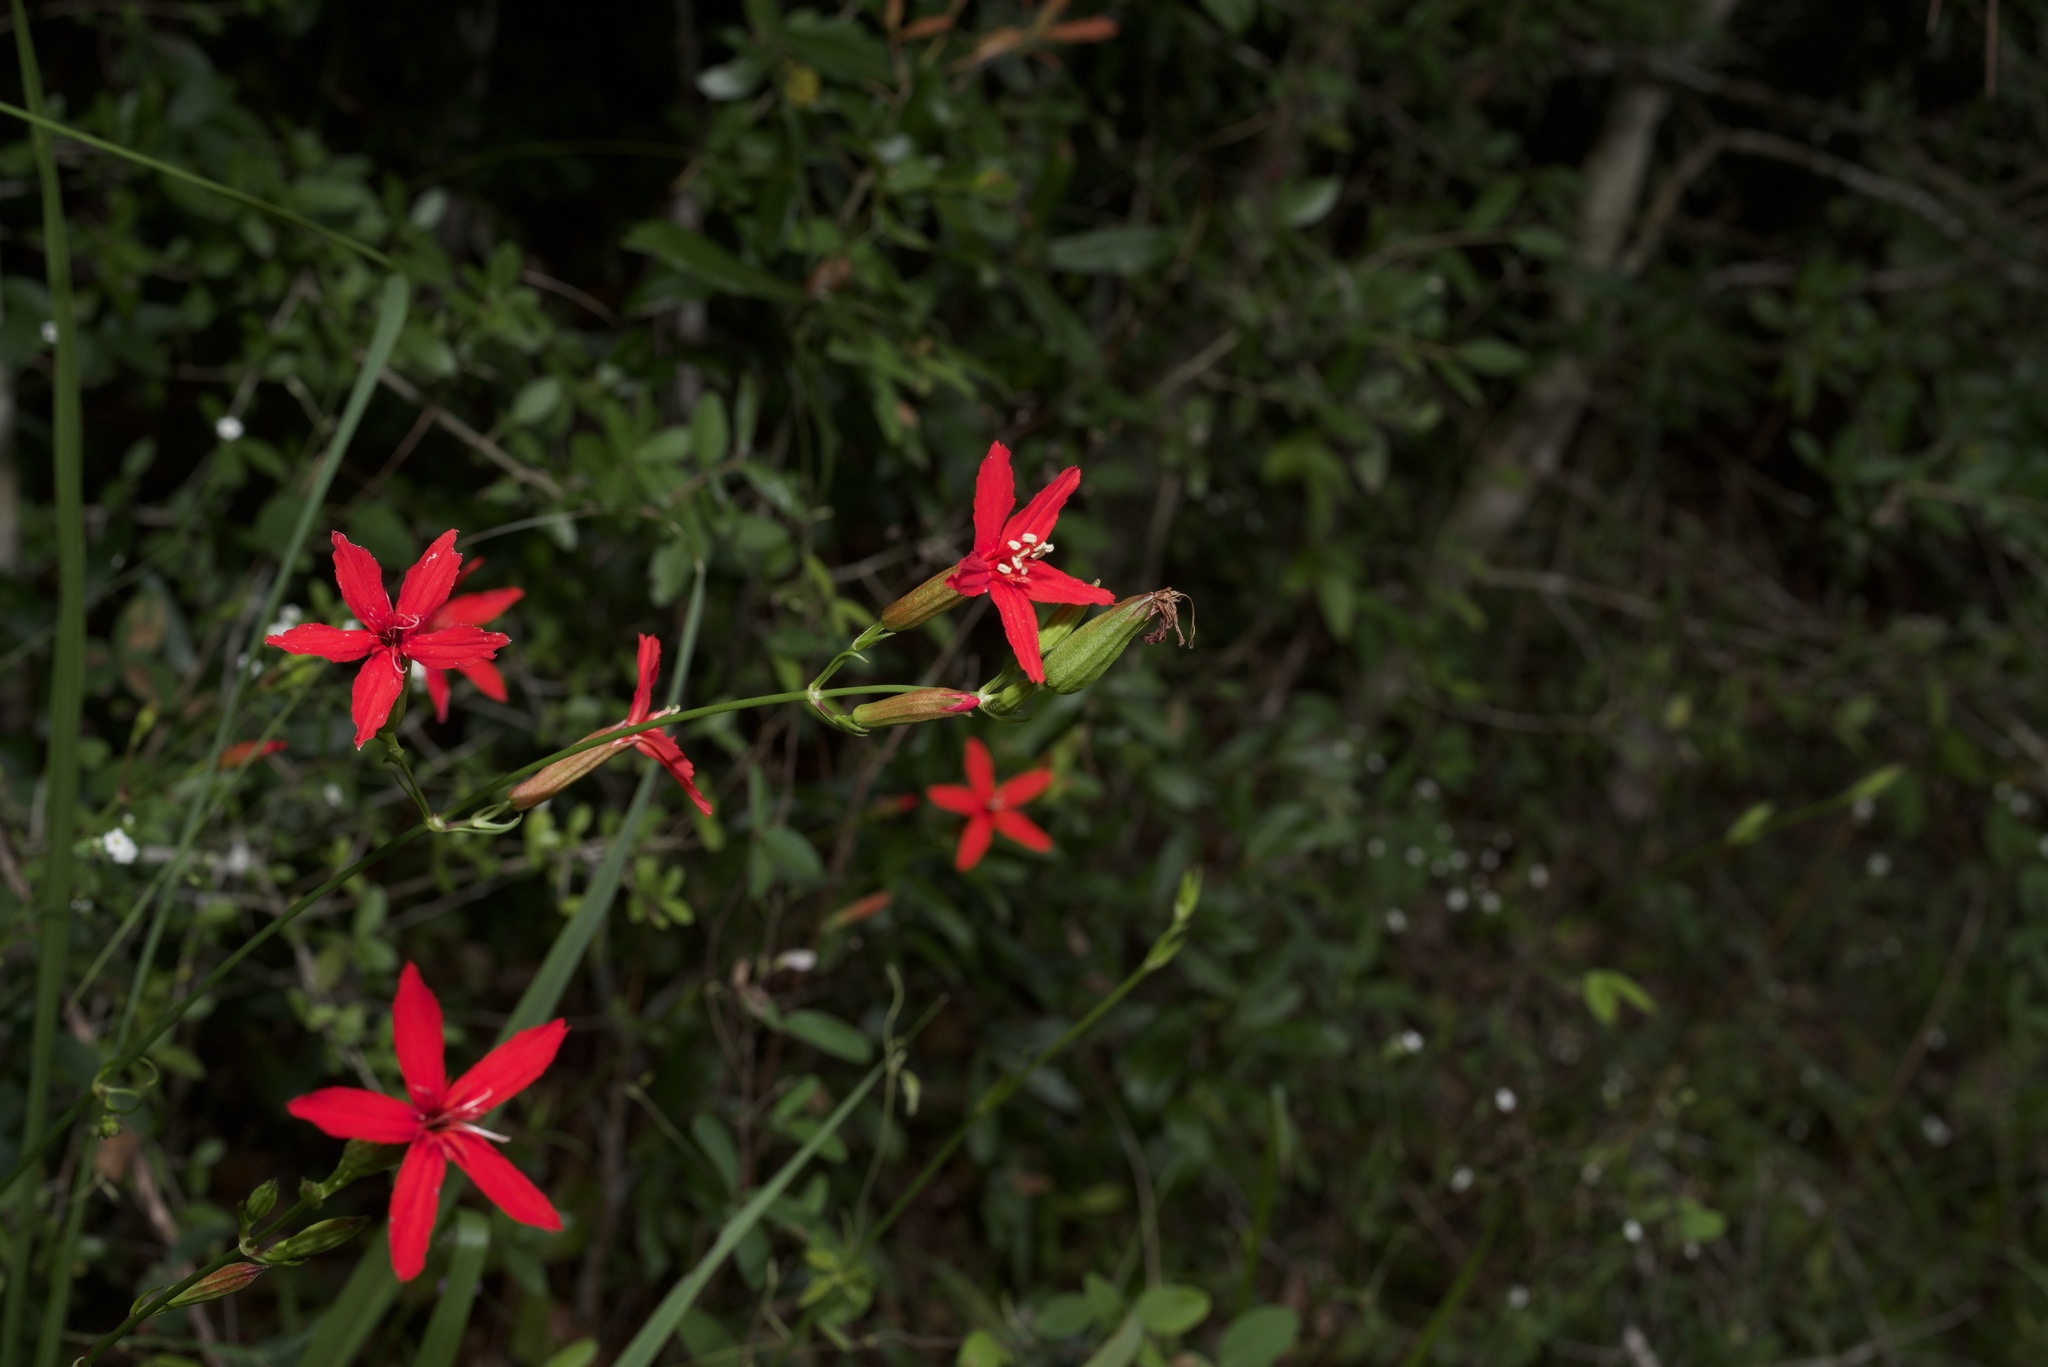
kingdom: Plantae
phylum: Tracheophyta
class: Magnoliopsida
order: Caryophyllales
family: Caryophyllaceae
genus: Silene
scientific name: Silene subciliata
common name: Prairie fire-pink
